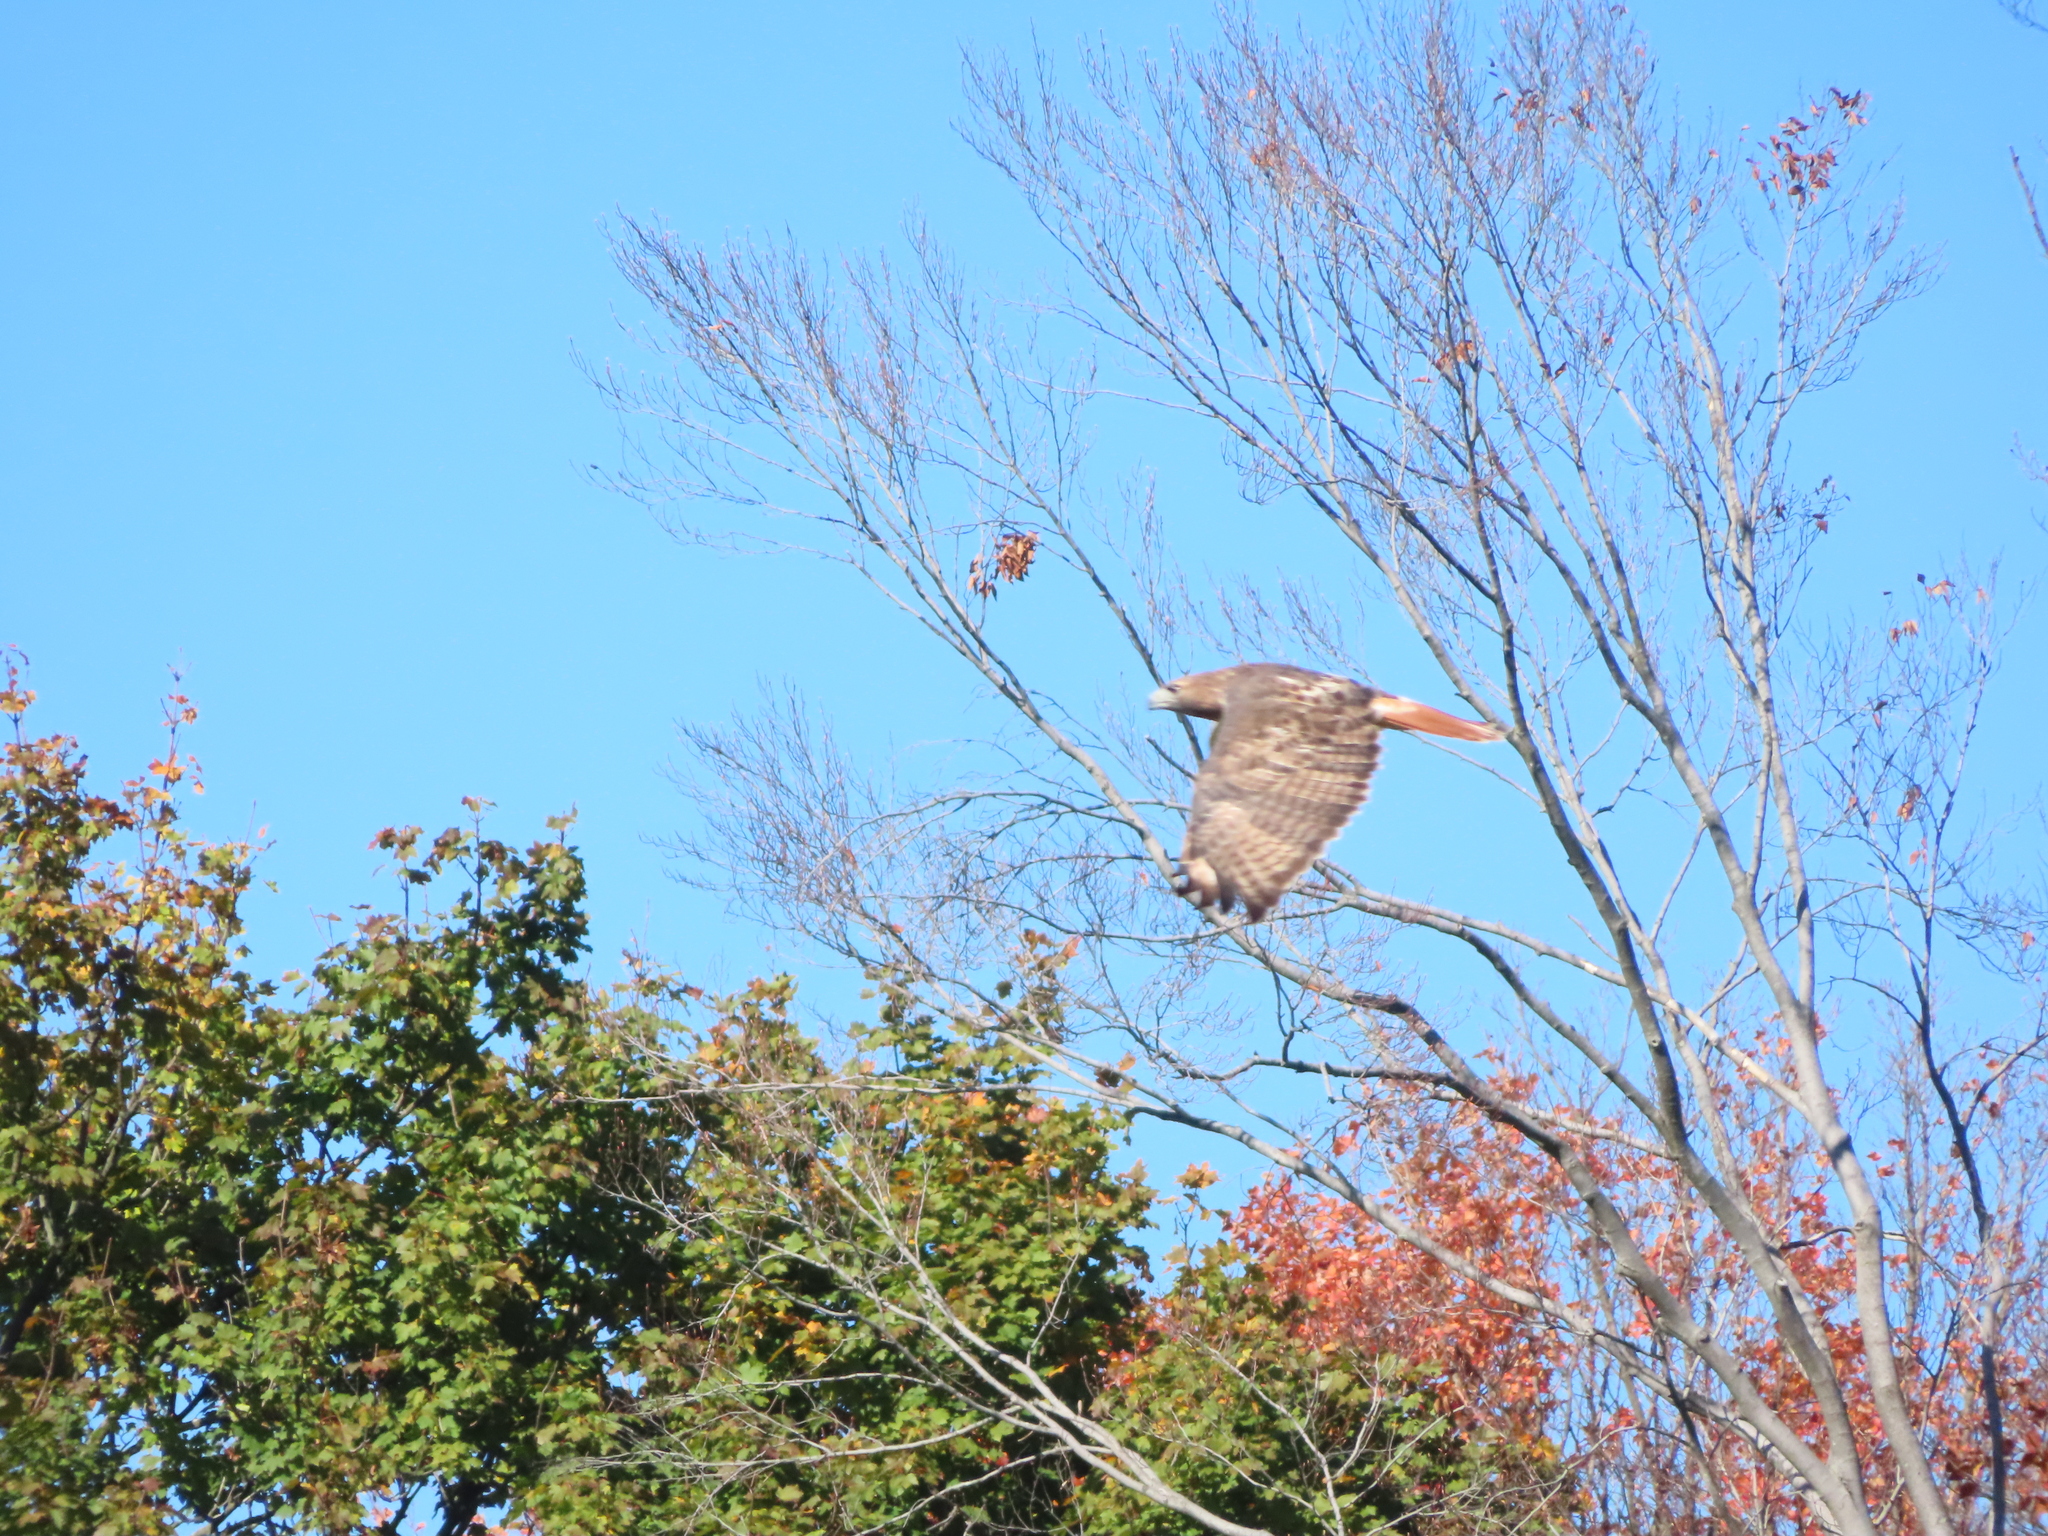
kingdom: Animalia
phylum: Chordata
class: Aves
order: Accipitriformes
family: Accipitridae
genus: Buteo
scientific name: Buteo jamaicensis
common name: Red-tailed hawk
